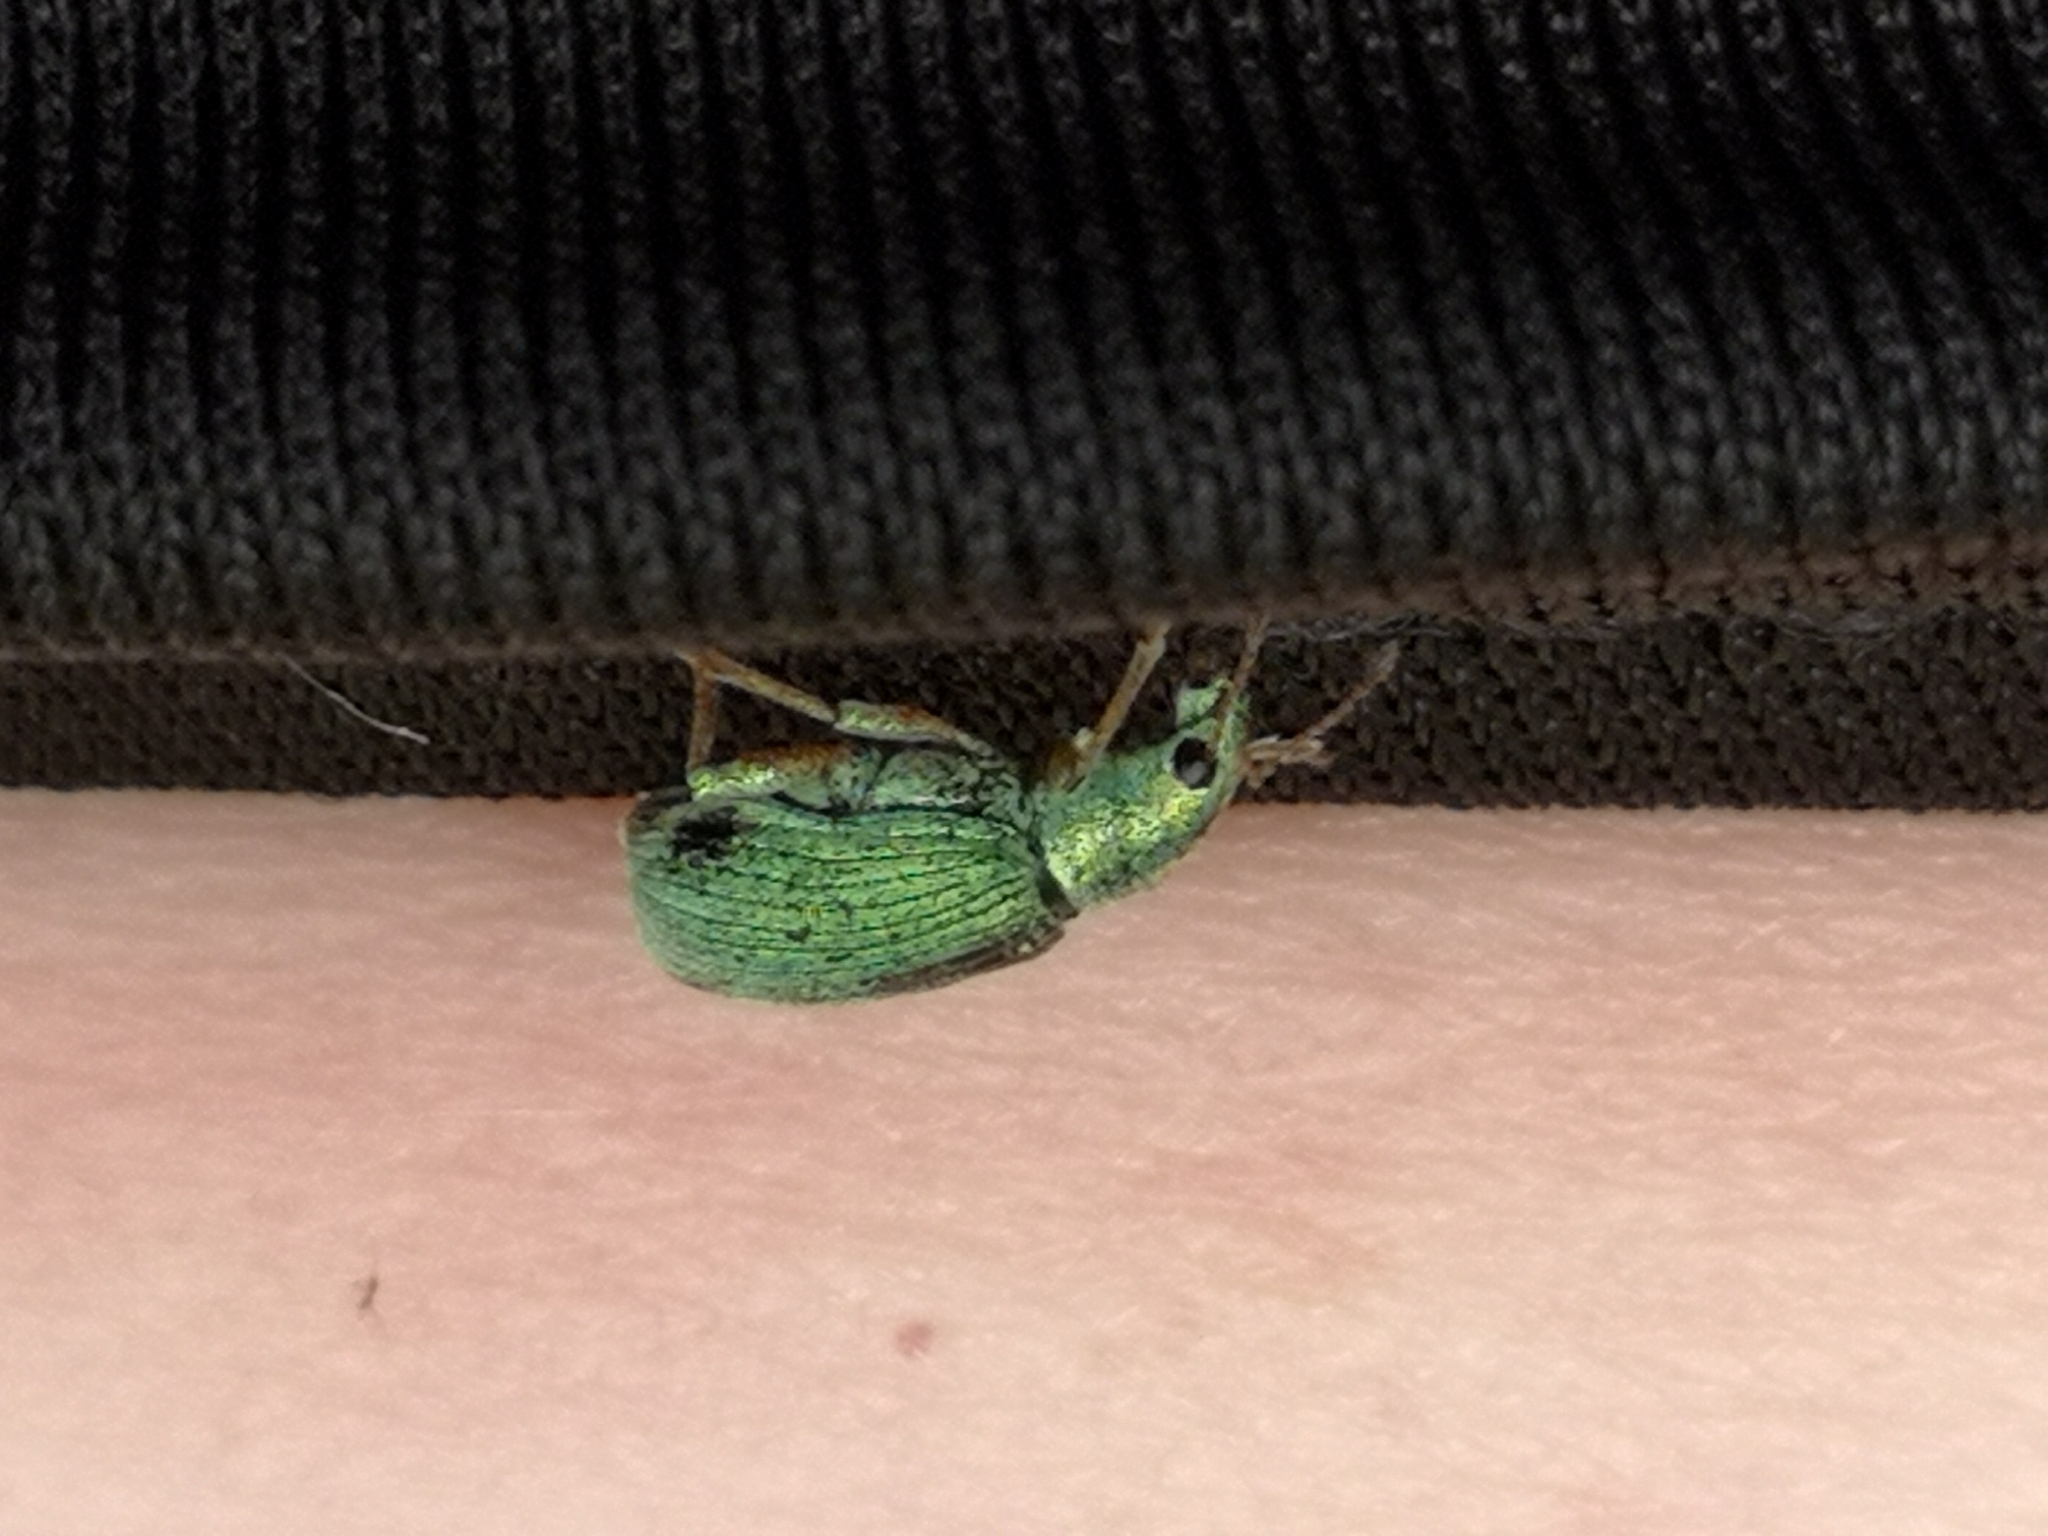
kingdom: Animalia
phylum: Arthropoda
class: Insecta
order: Coleoptera
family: Curculionidae
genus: Polydrusus
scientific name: Polydrusus formosus
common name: Weevil
